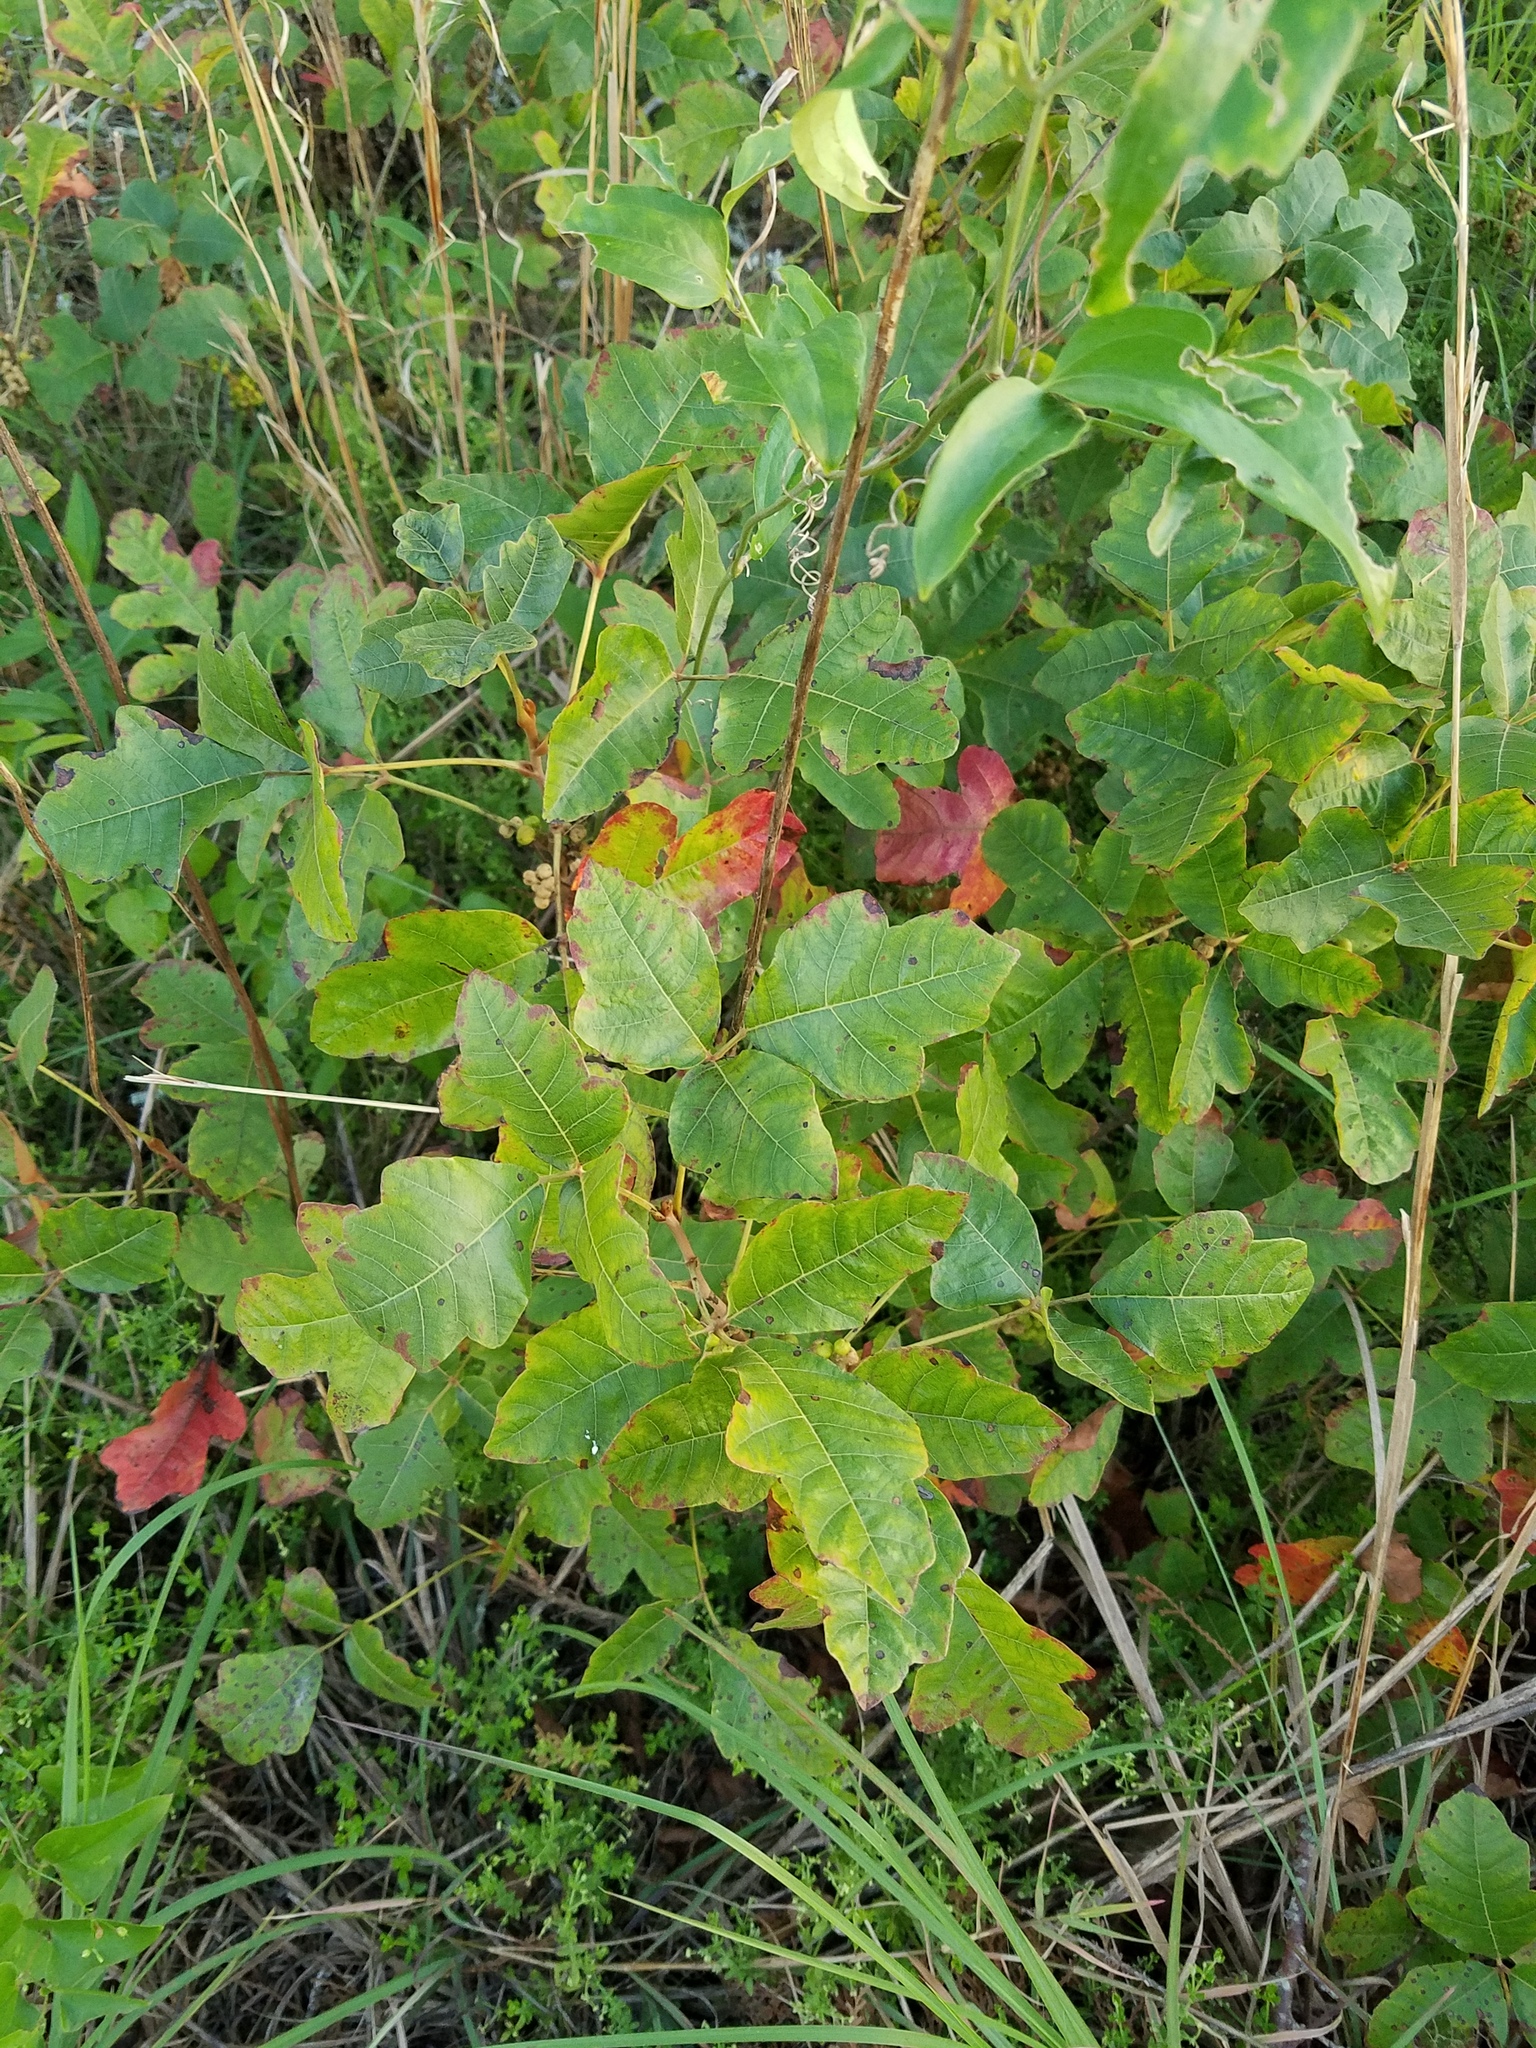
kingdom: Plantae
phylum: Tracheophyta
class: Magnoliopsida
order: Sapindales
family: Anacardiaceae
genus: Toxicodendron
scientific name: Toxicodendron pubescens
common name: Eastern poison-oak
